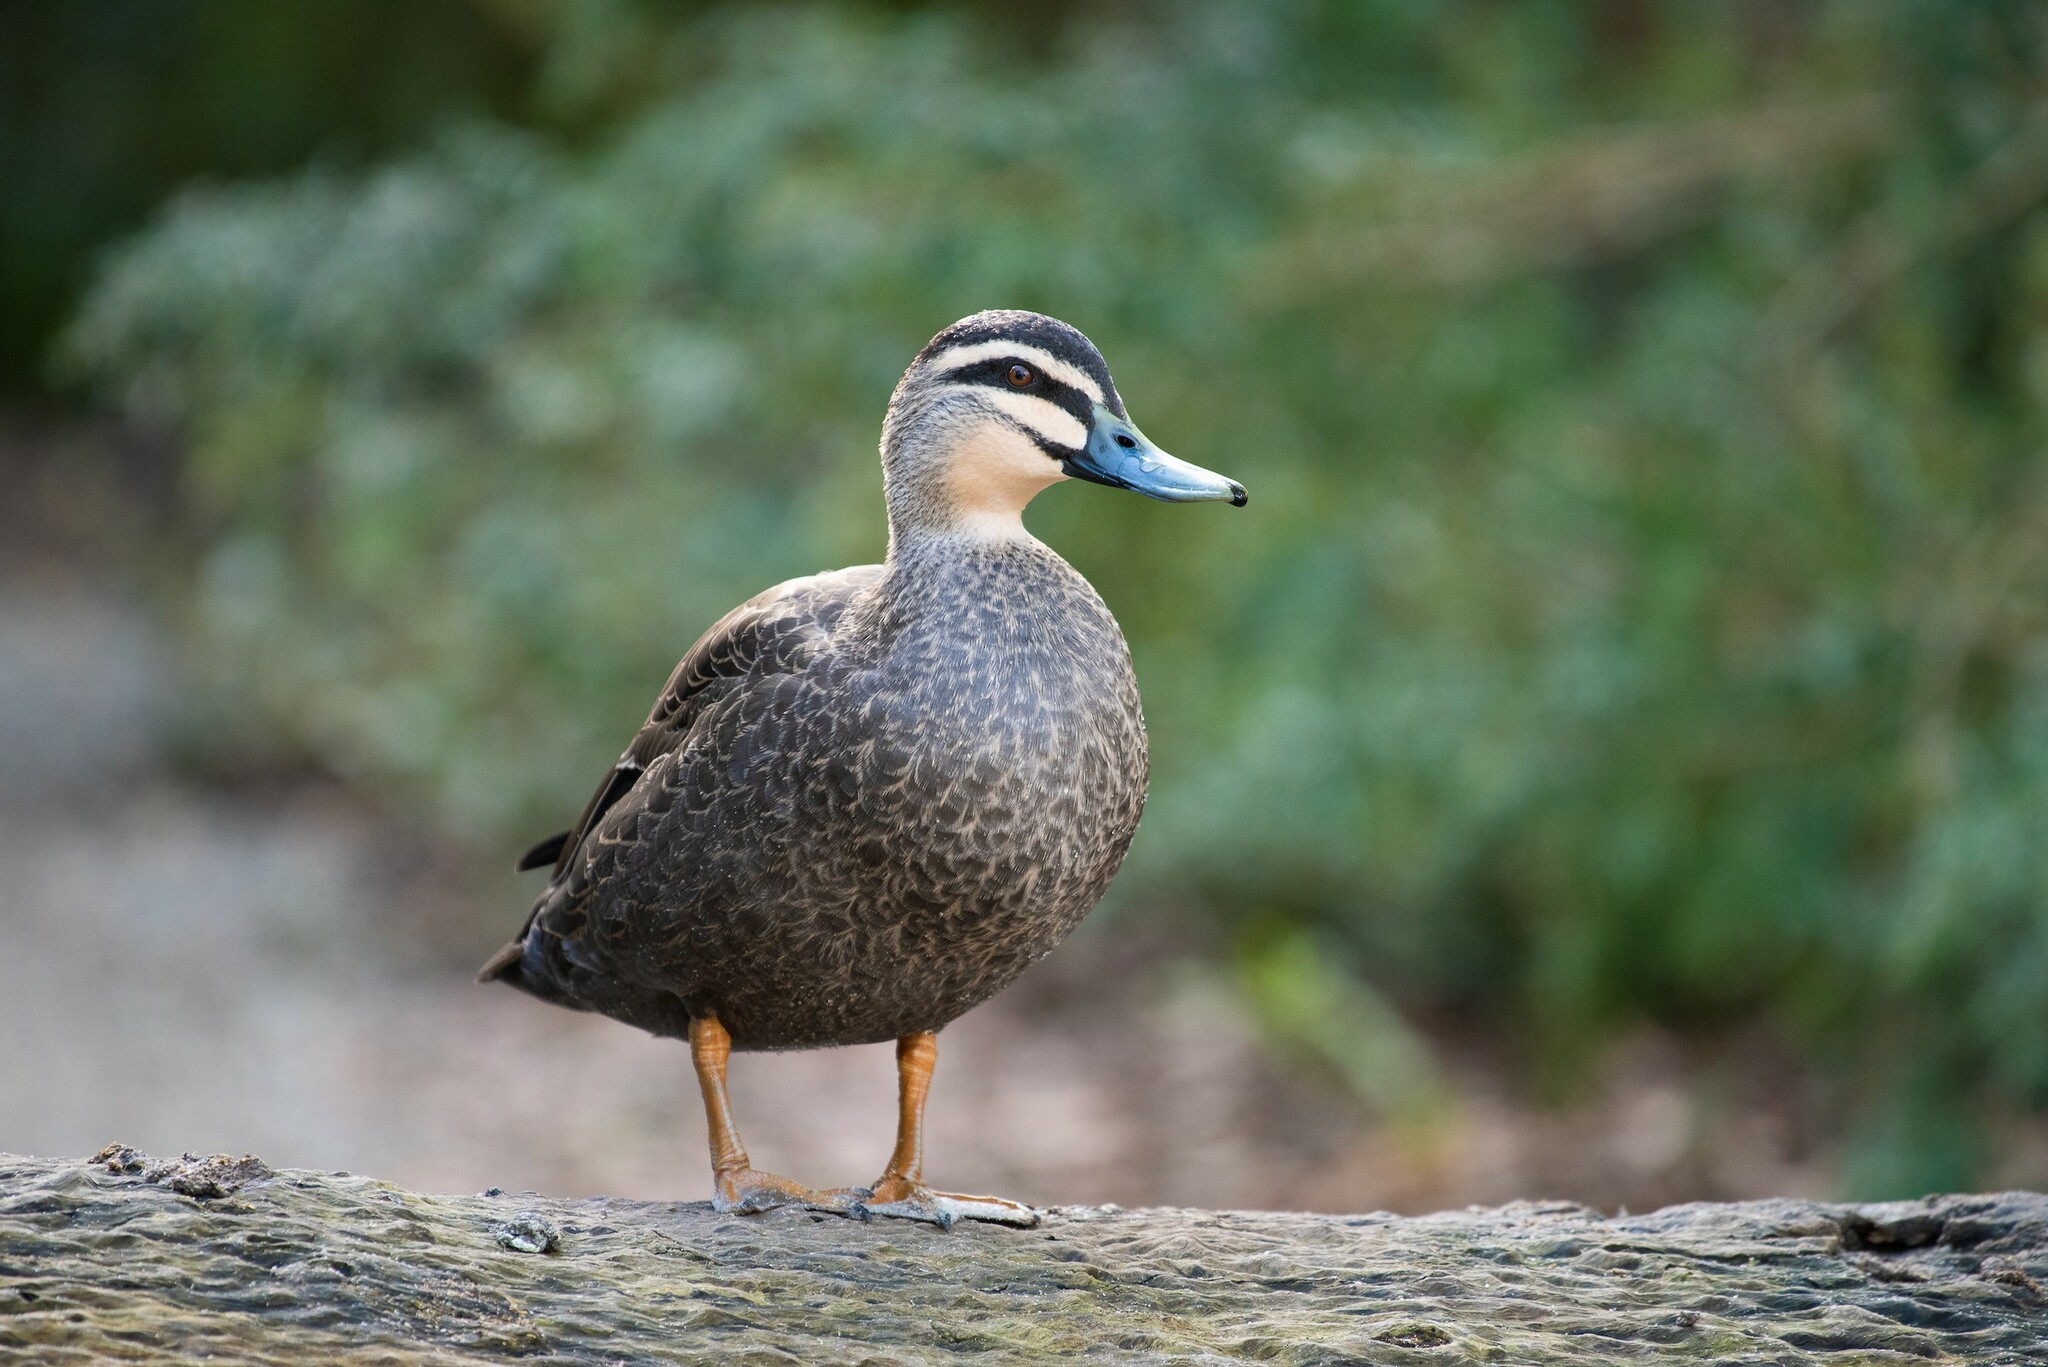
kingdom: Animalia
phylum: Chordata
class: Aves
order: Anseriformes
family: Anatidae
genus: Anas
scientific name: Anas superciliosa
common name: Pacific black duck
